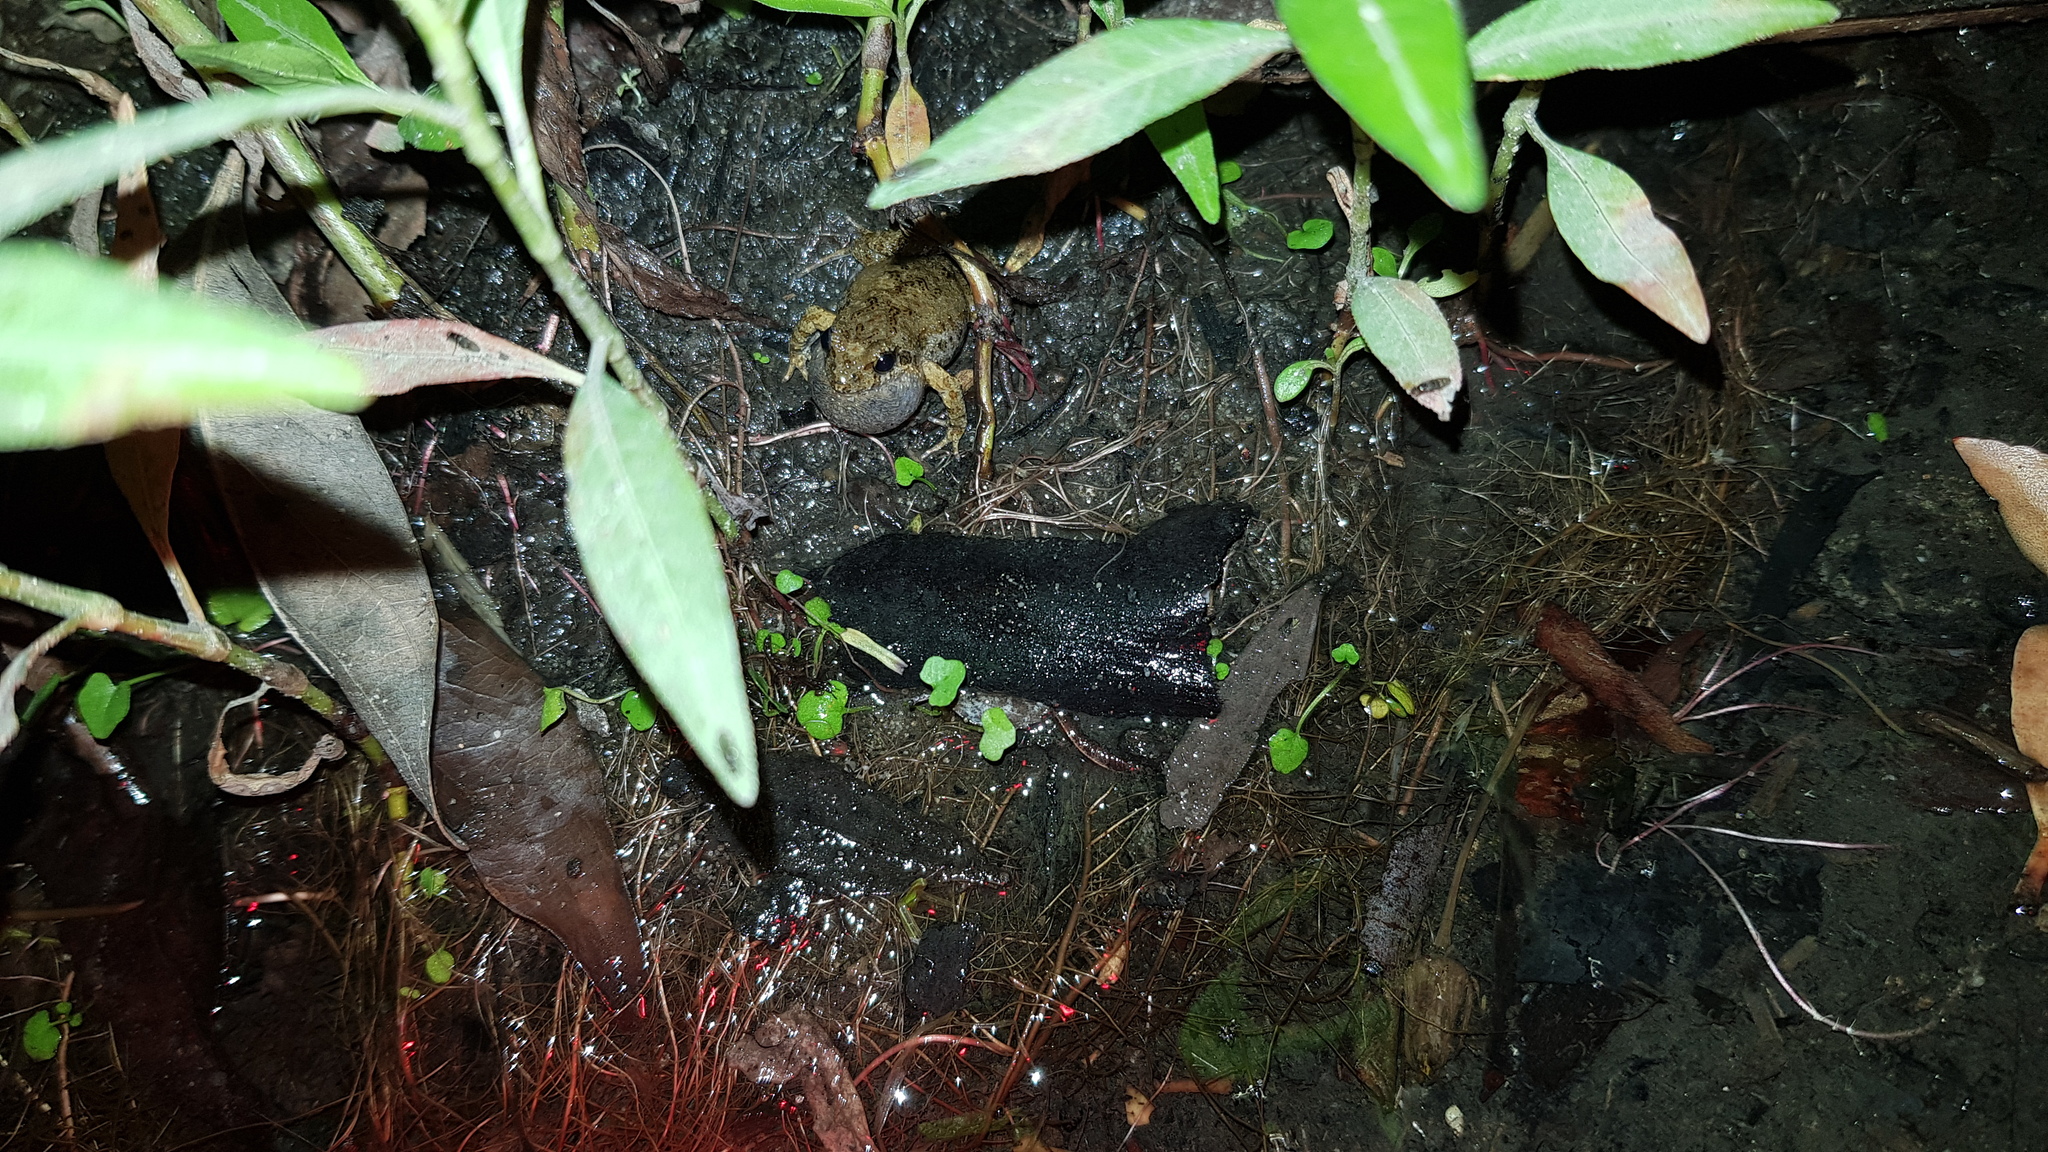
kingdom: Animalia
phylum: Chordata
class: Amphibia
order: Anura
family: Myobatrachidae
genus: Crinia
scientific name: Crinia signifera
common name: Brown froglet
